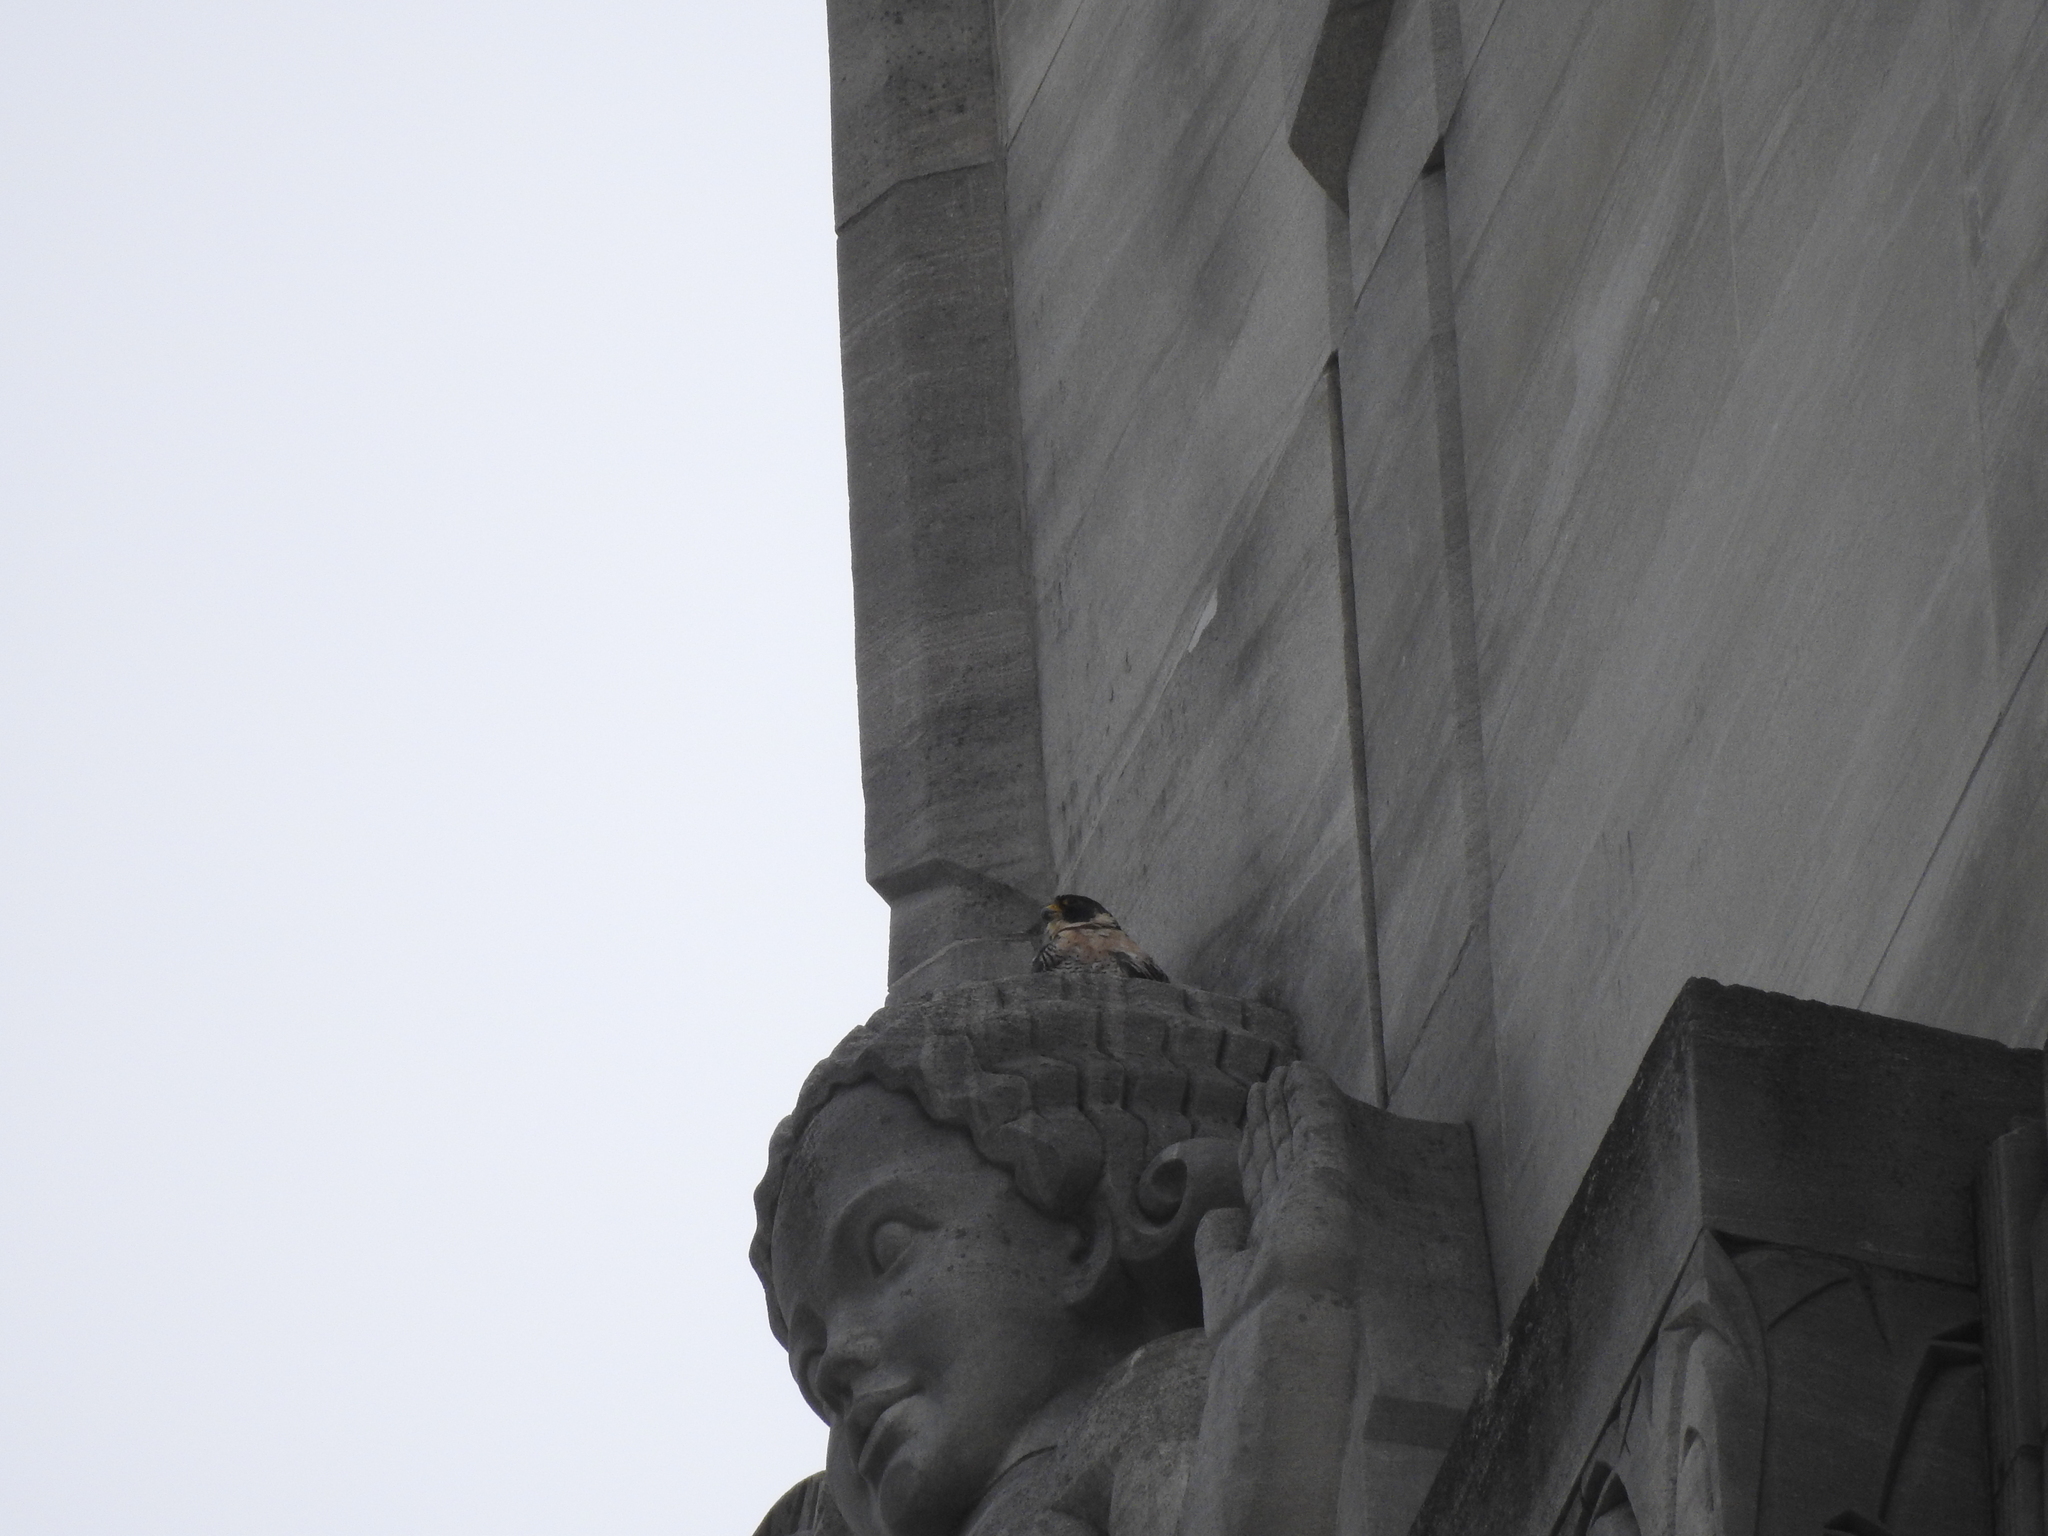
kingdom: Animalia
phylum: Chordata
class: Aves
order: Falconiformes
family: Falconidae
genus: Falco
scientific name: Falco peregrinus
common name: Peregrine falcon
